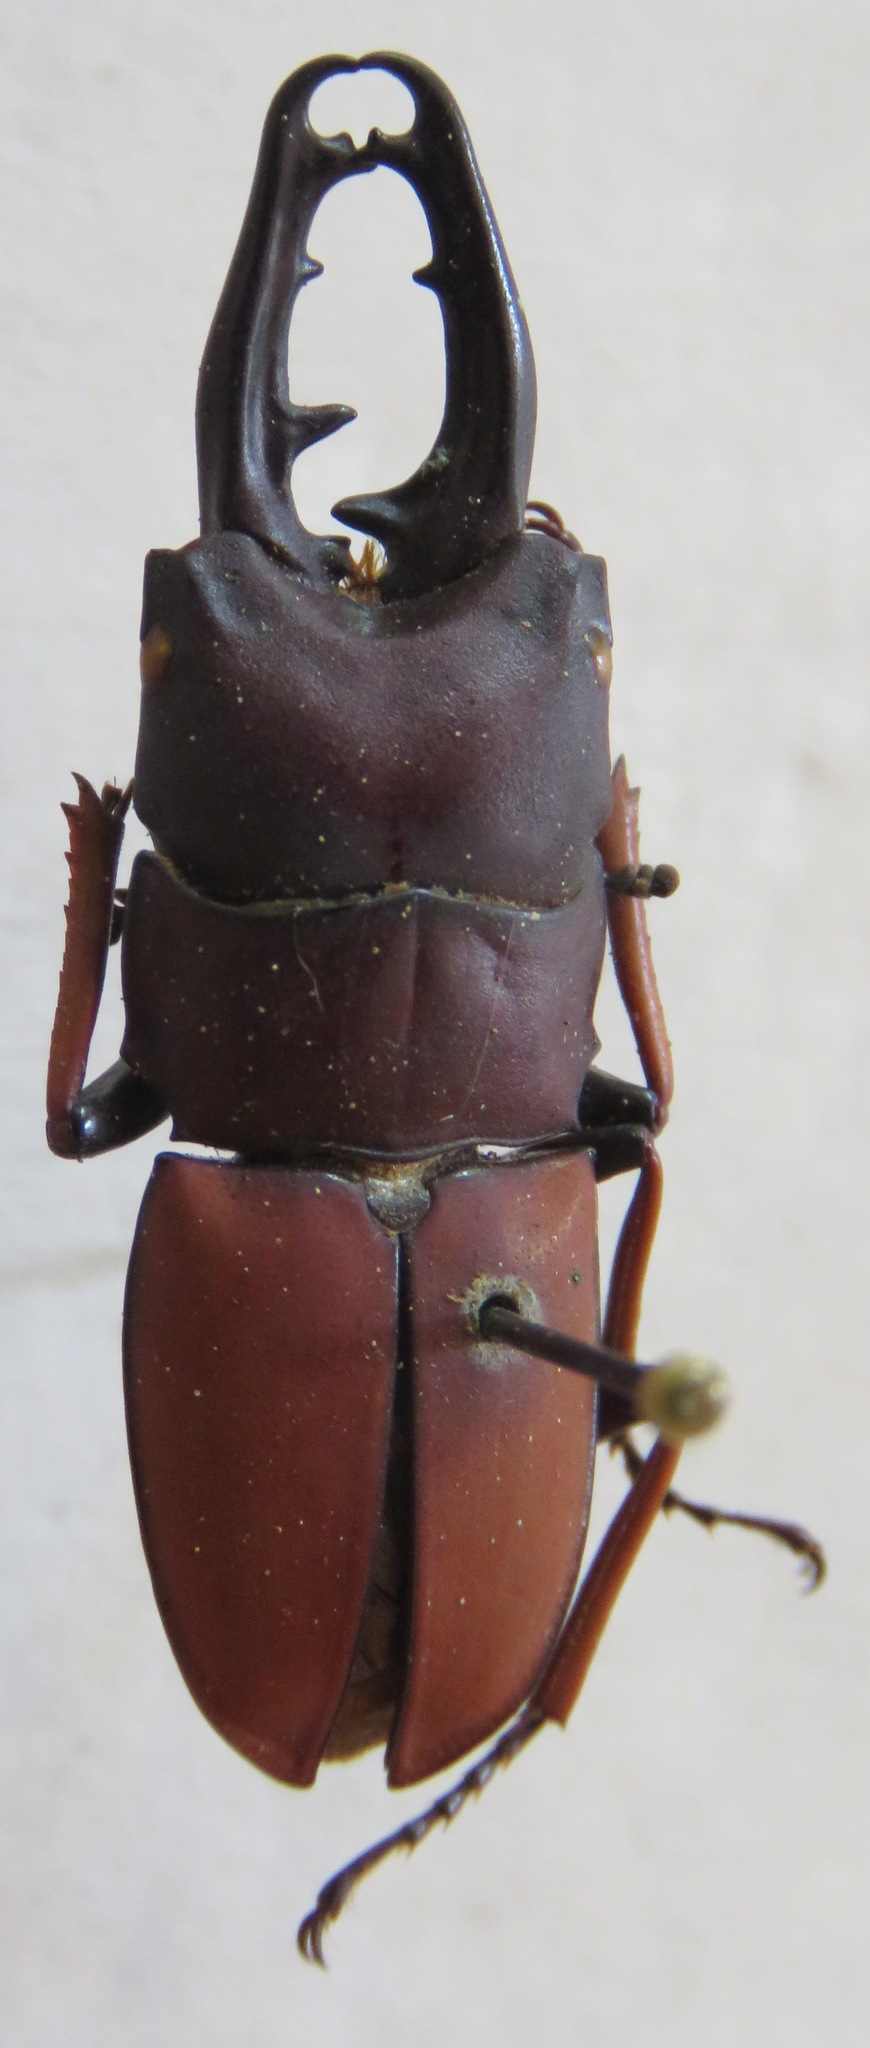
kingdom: Animalia
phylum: Arthropoda
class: Insecta
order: Coleoptera
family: Lucanidae
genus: Leptinopterus
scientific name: Leptinopterus tibialis
